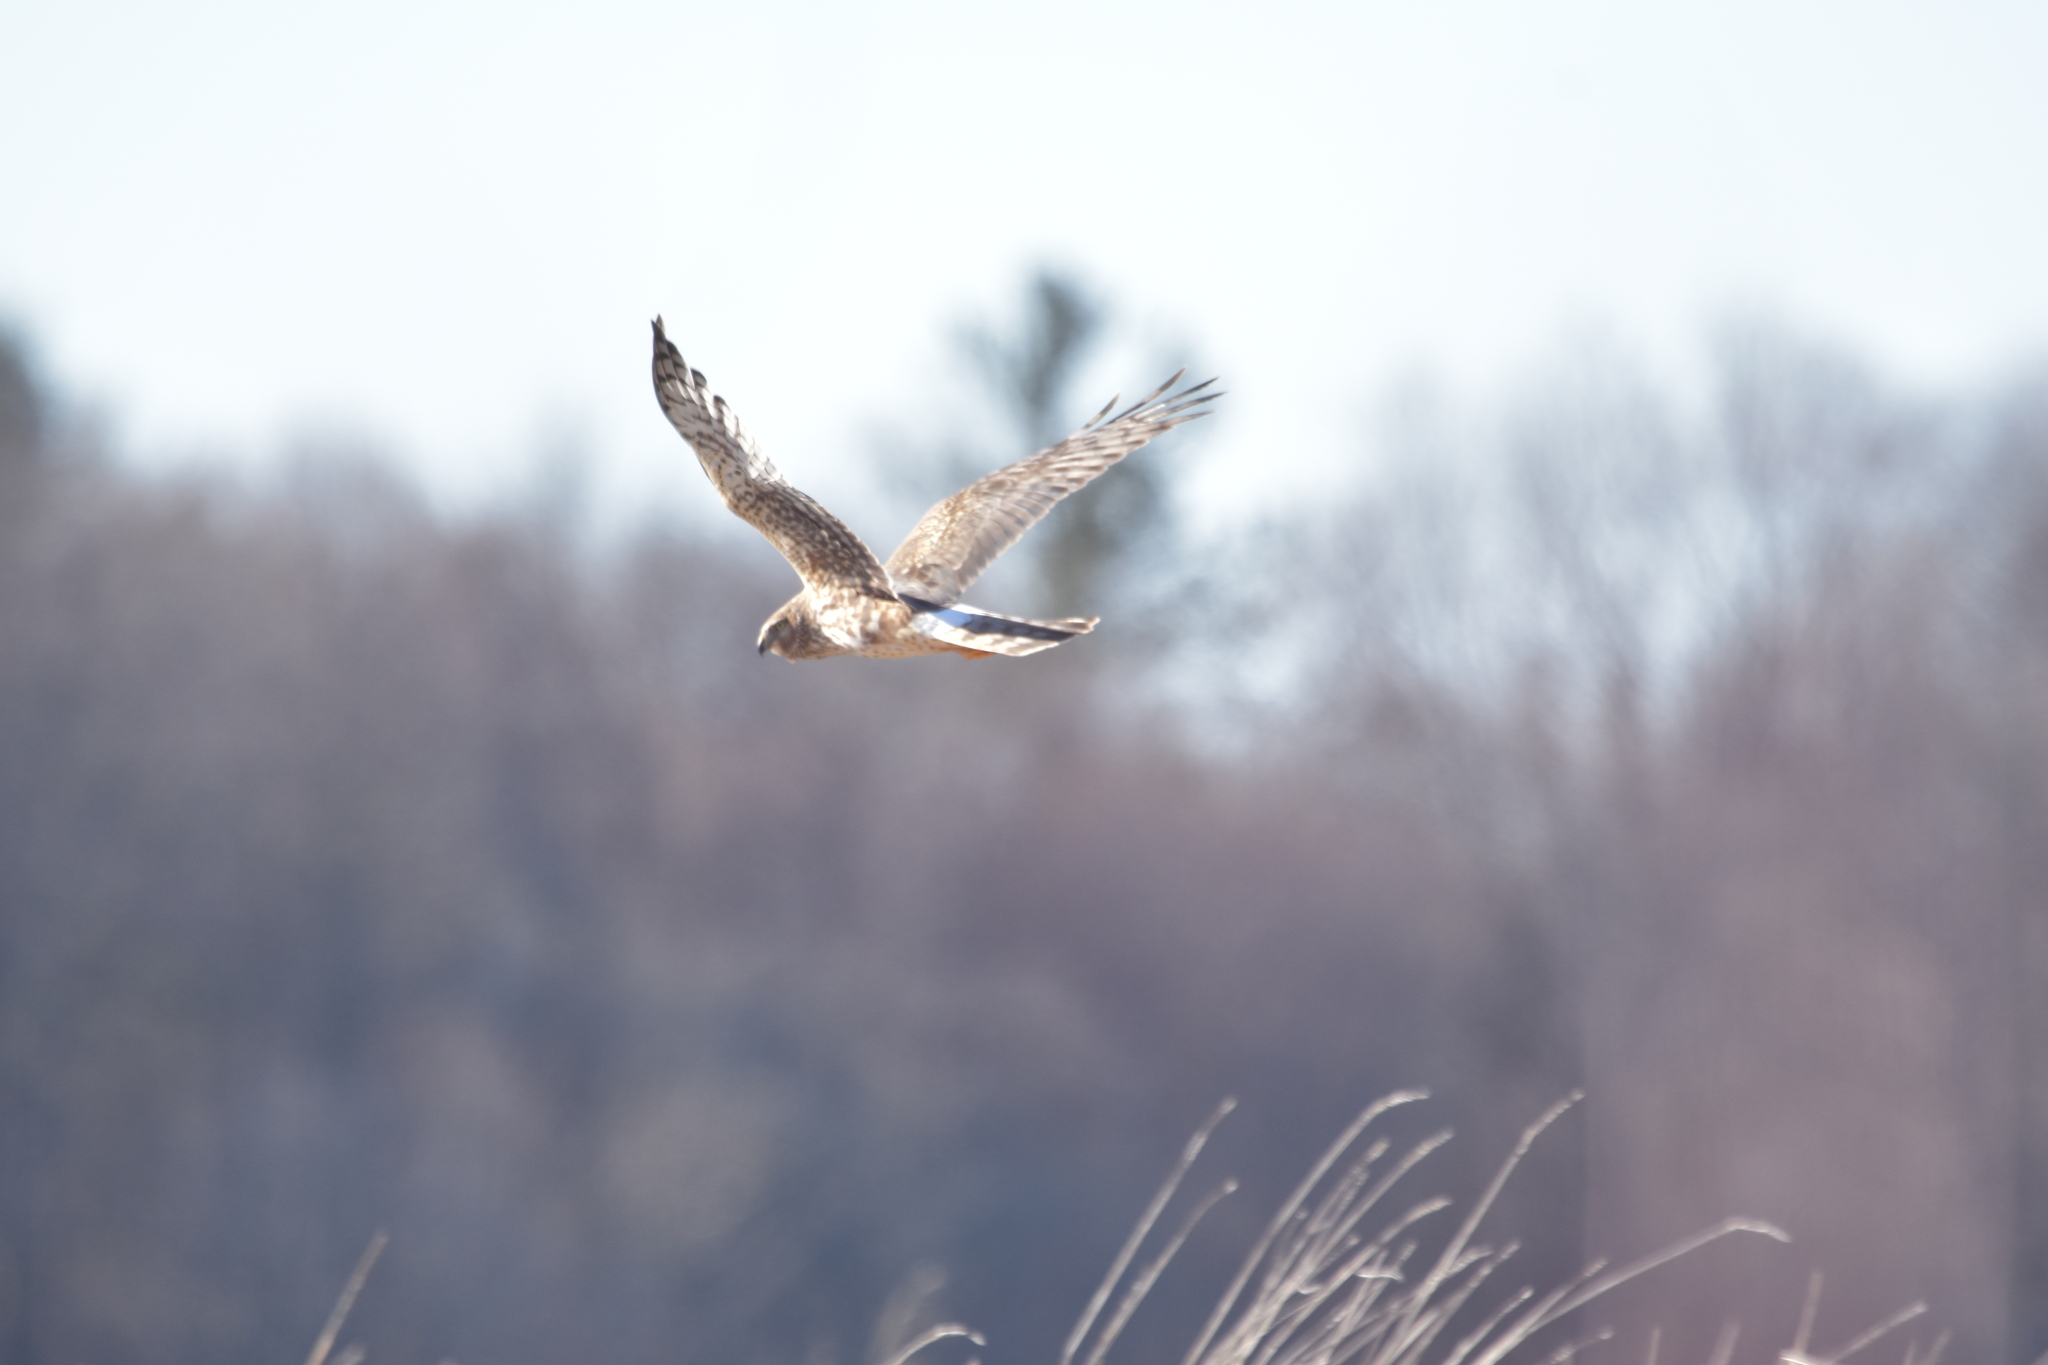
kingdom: Animalia
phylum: Chordata
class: Aves
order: Accipitriformes
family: Accipitridae
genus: Circus
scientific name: Circus cyaneus
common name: Hen harrier
